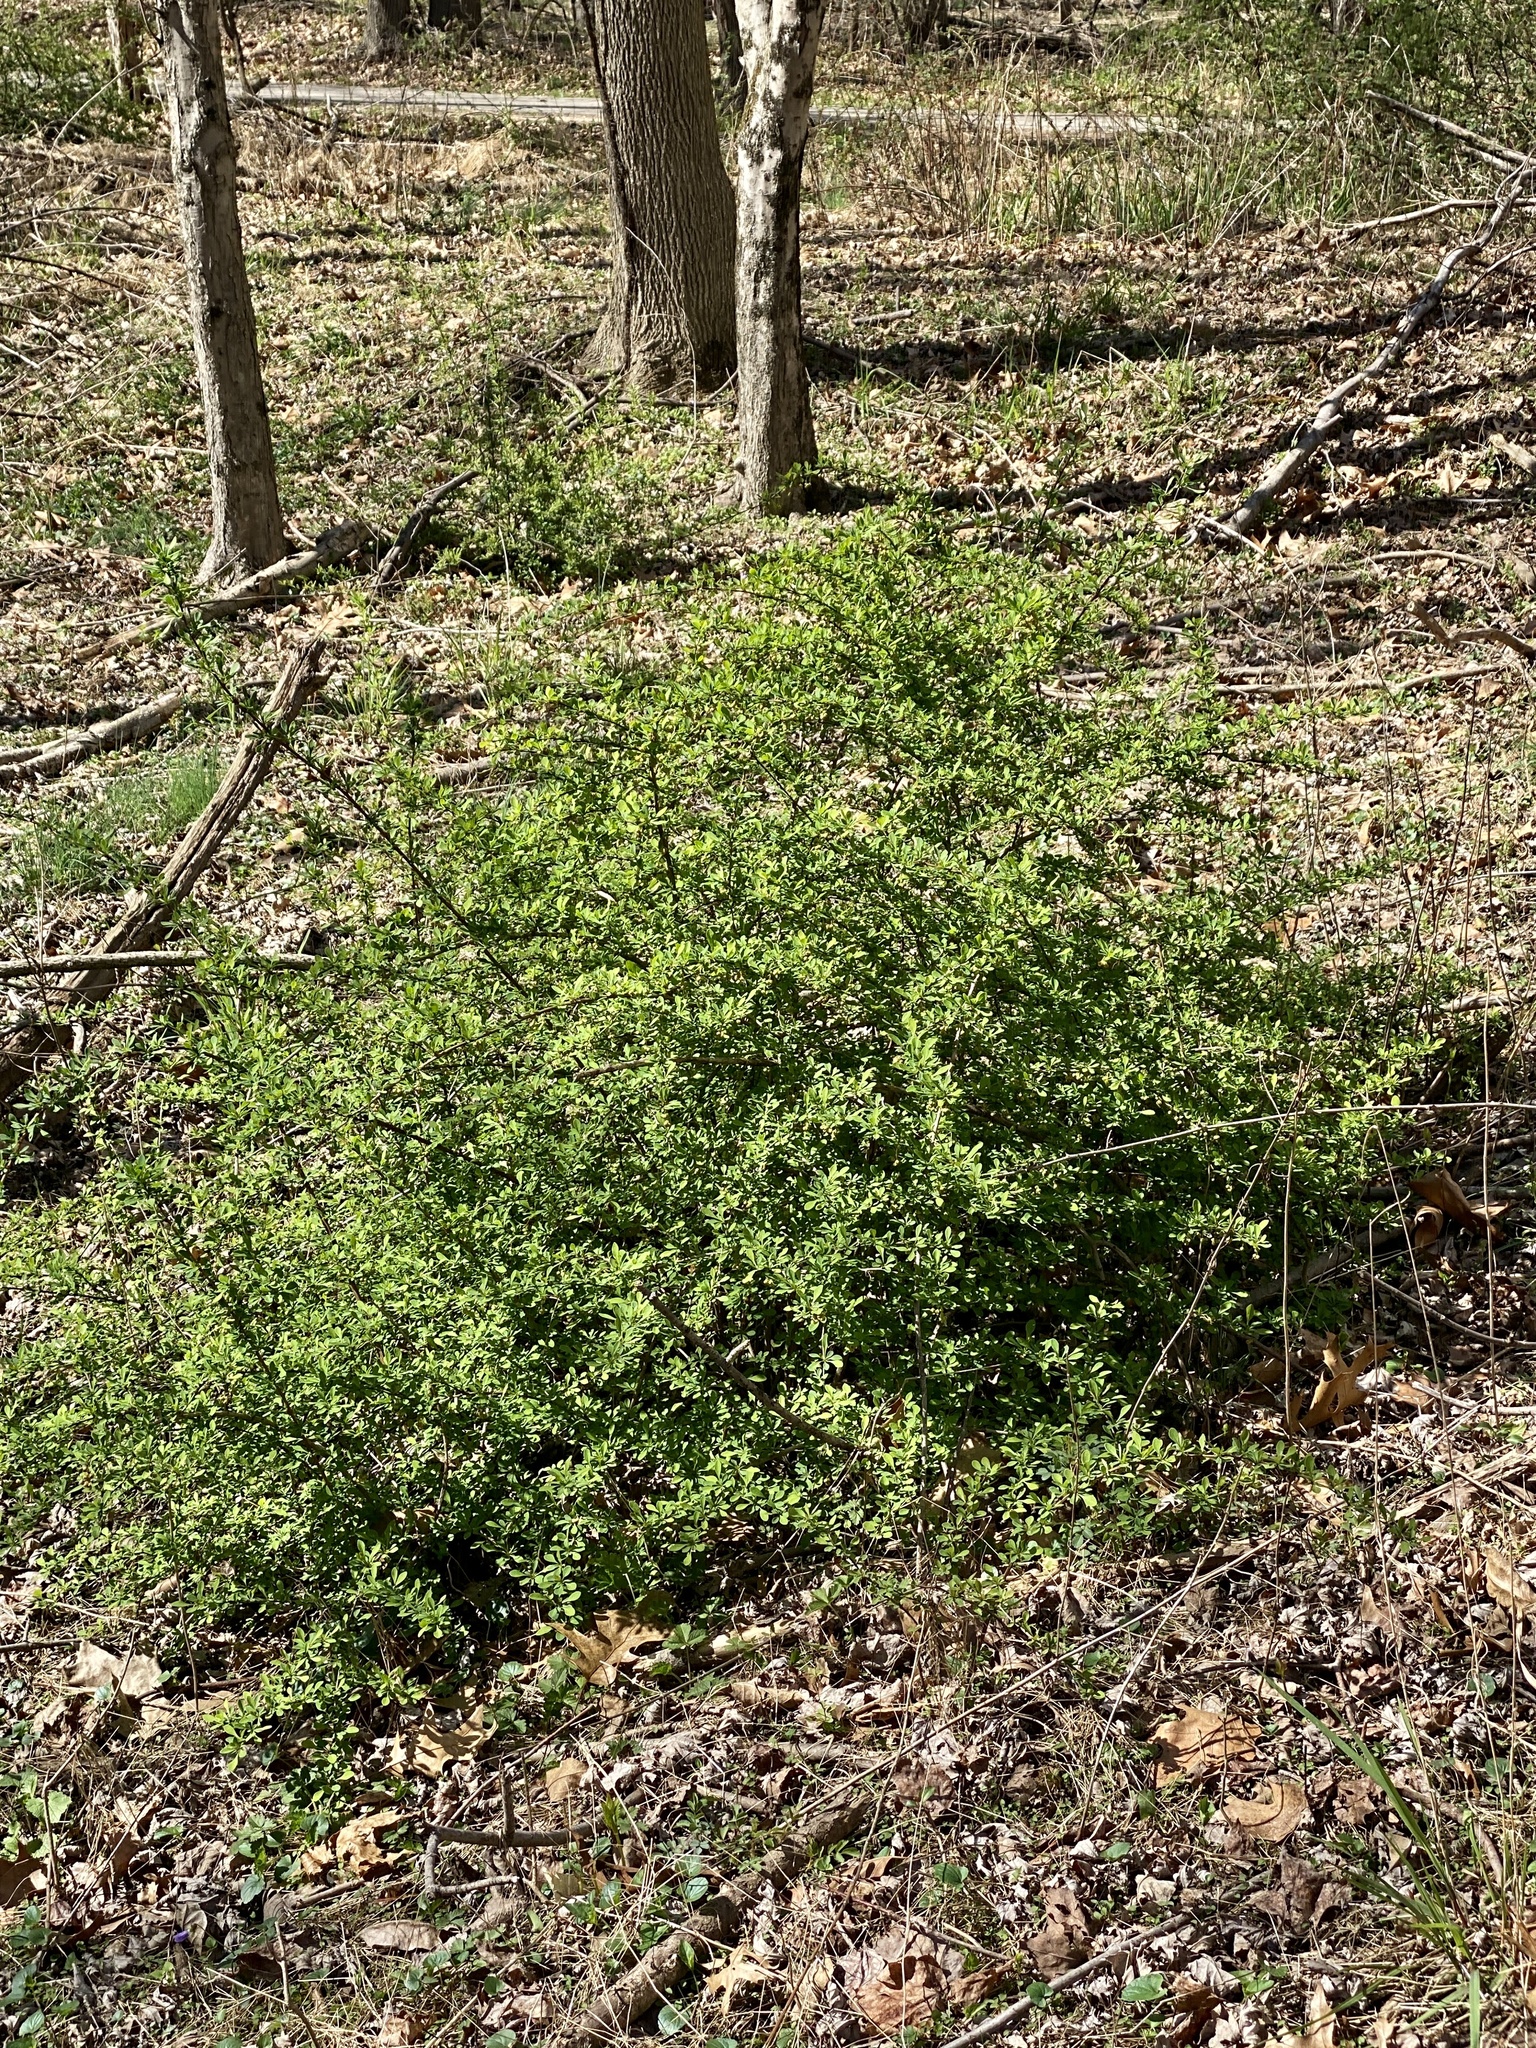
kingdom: Plantae
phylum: Tracheophyta
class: Magnoliopsida
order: Ranunculales
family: Berberidaceae
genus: Berberis
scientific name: Berberis thunbergii
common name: Japanese barberry
